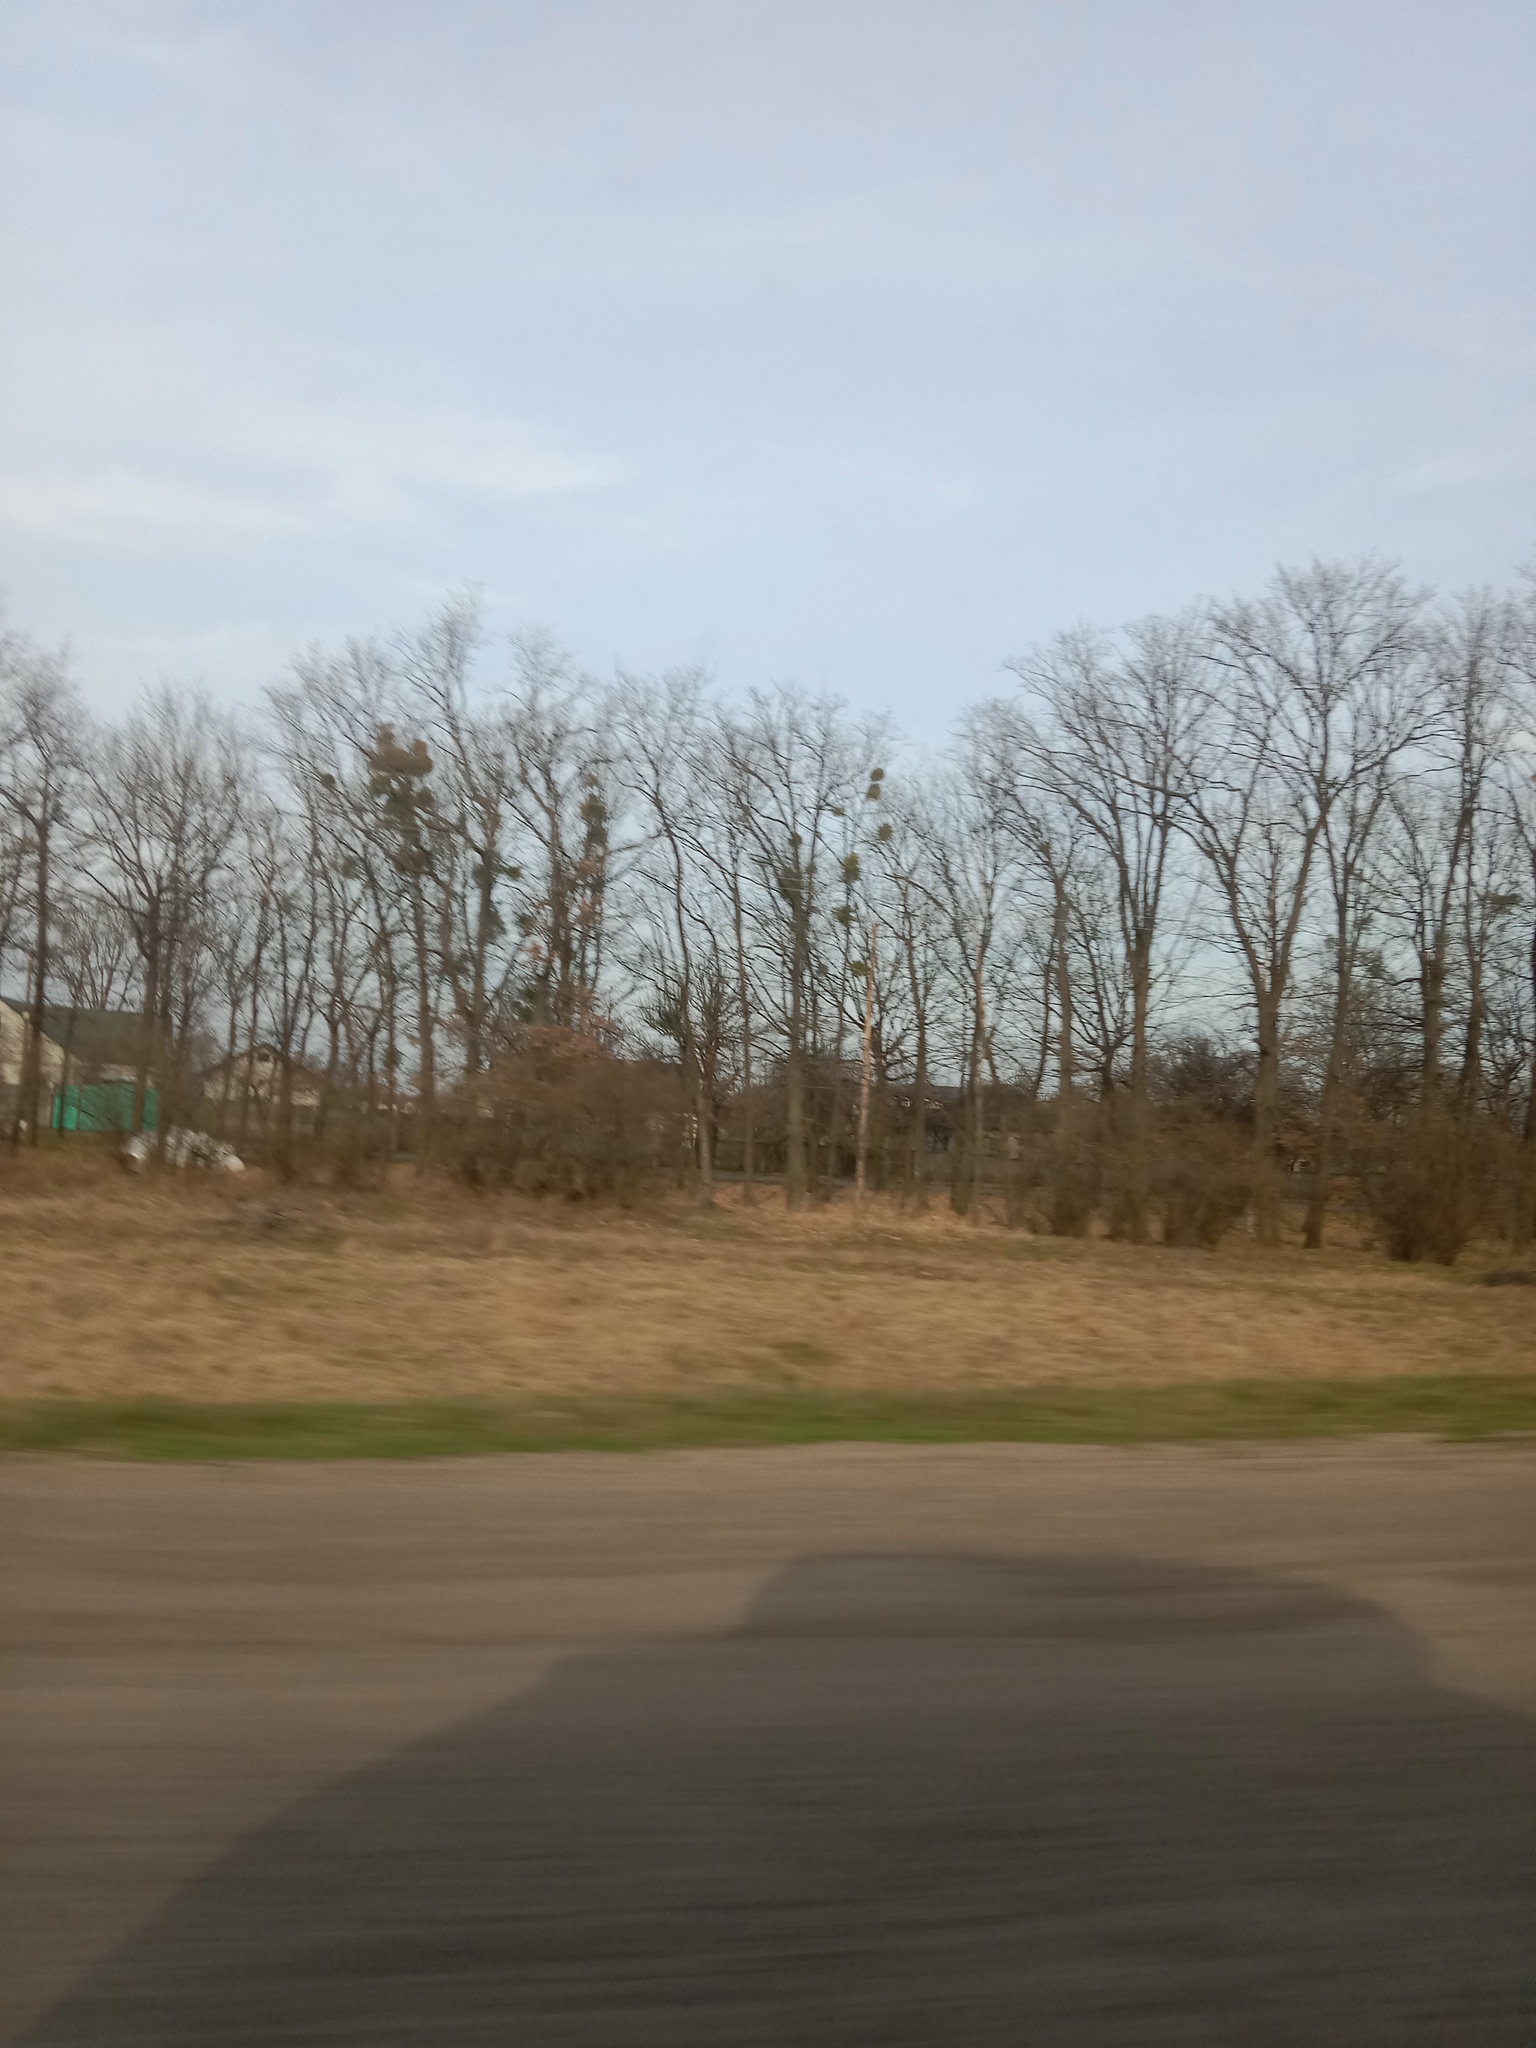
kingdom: Plantae
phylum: Tracheophyta
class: Magnoliopsida
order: Santalales
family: Viscaceae
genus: Viscum
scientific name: Viscum album
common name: Mistletoe
